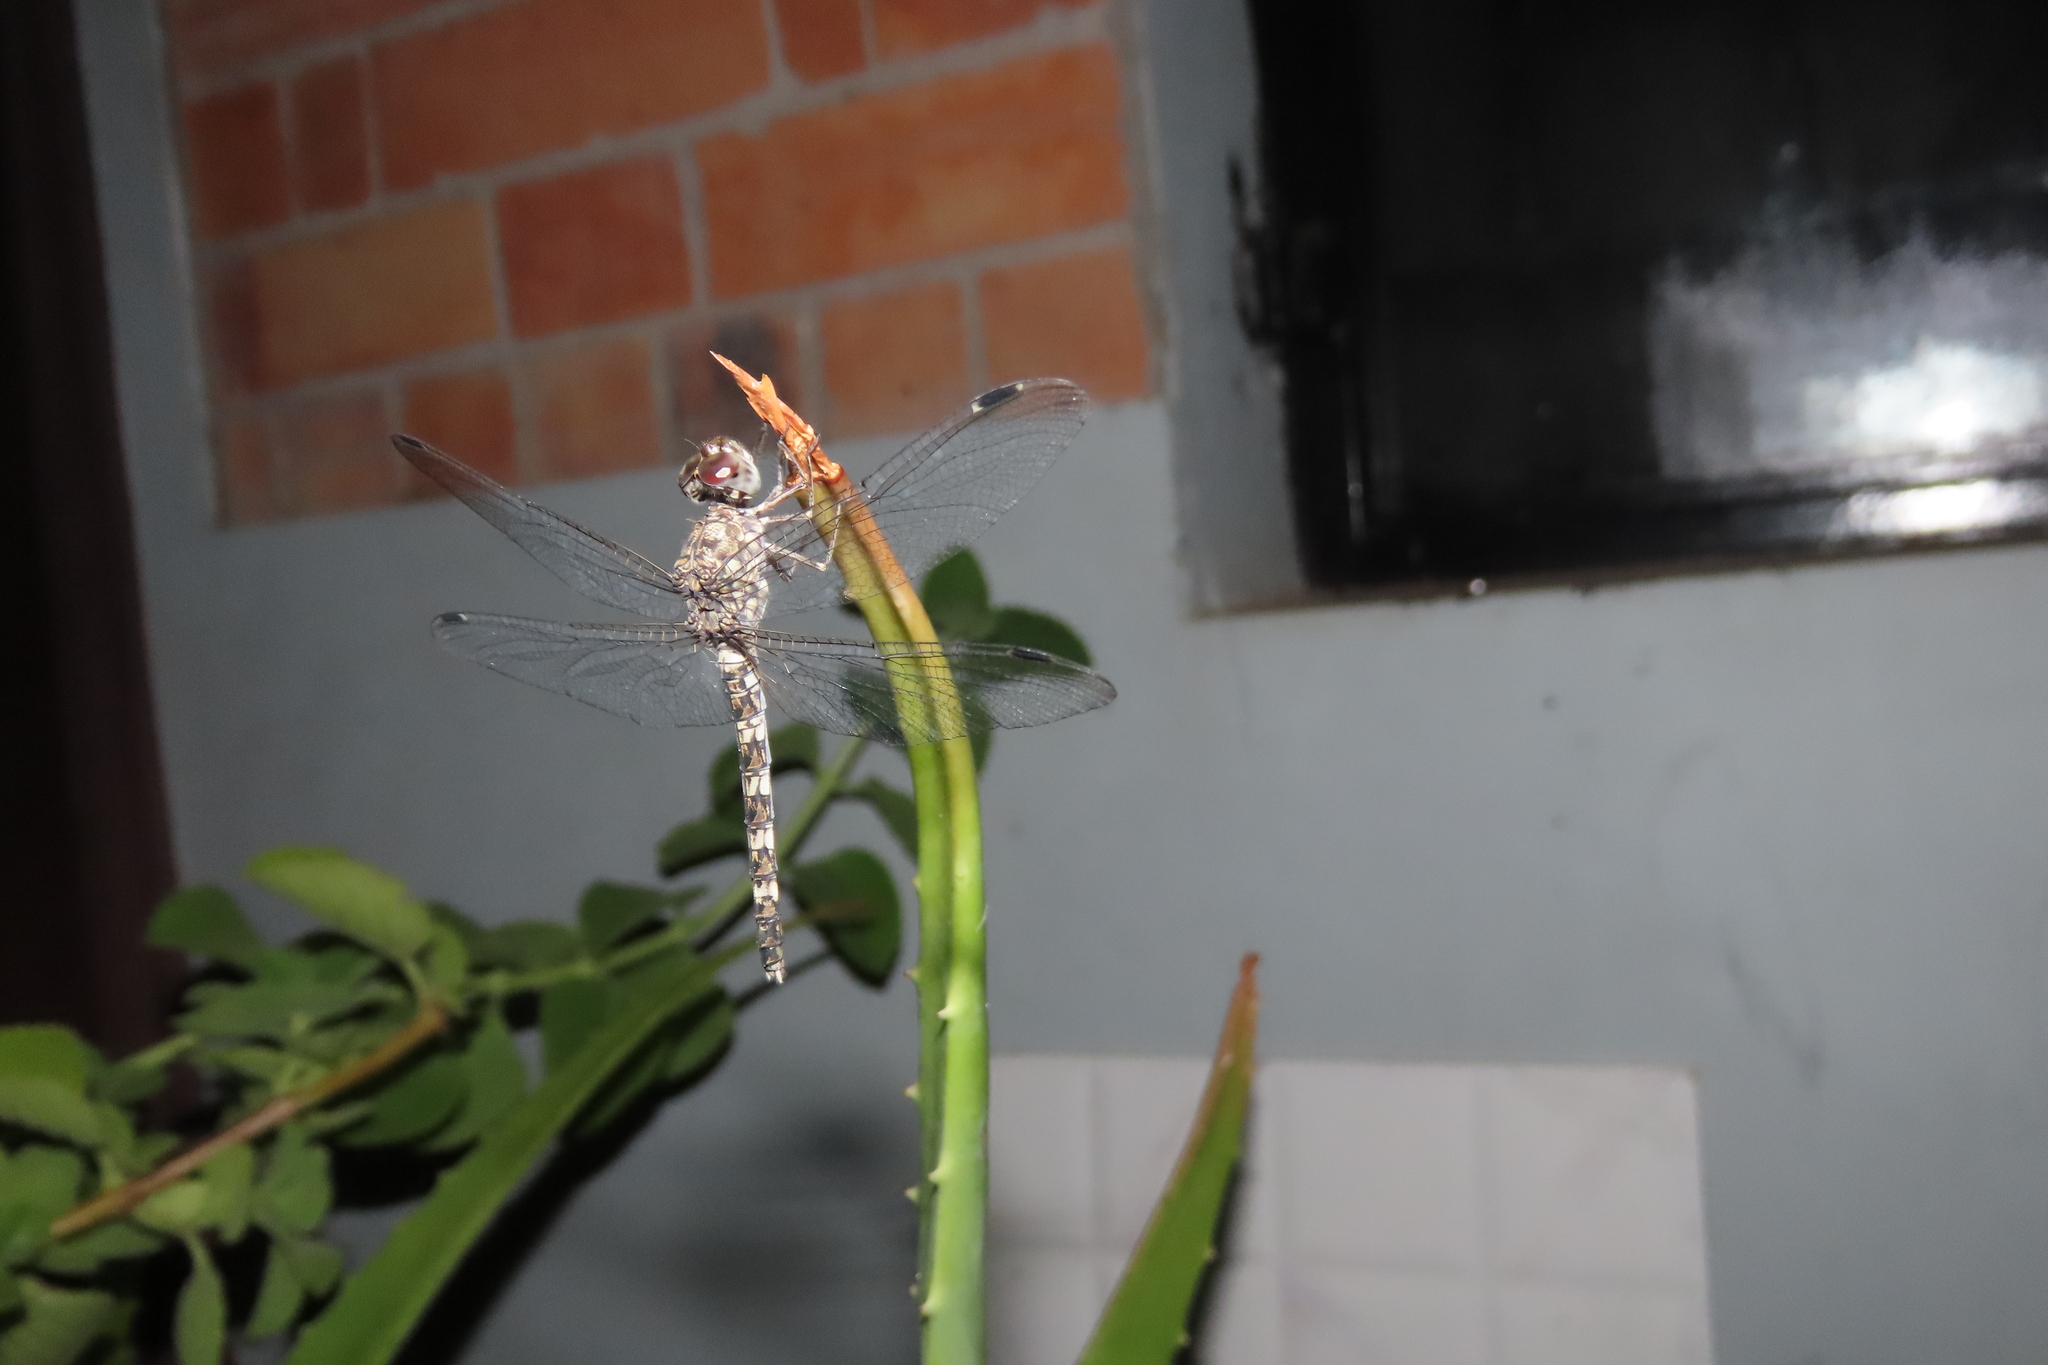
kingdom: Animalia
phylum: Arthropoda
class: Insecta
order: Odonata
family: Libellulidae
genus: Bradinopyga
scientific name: Bradinopyga geminata
